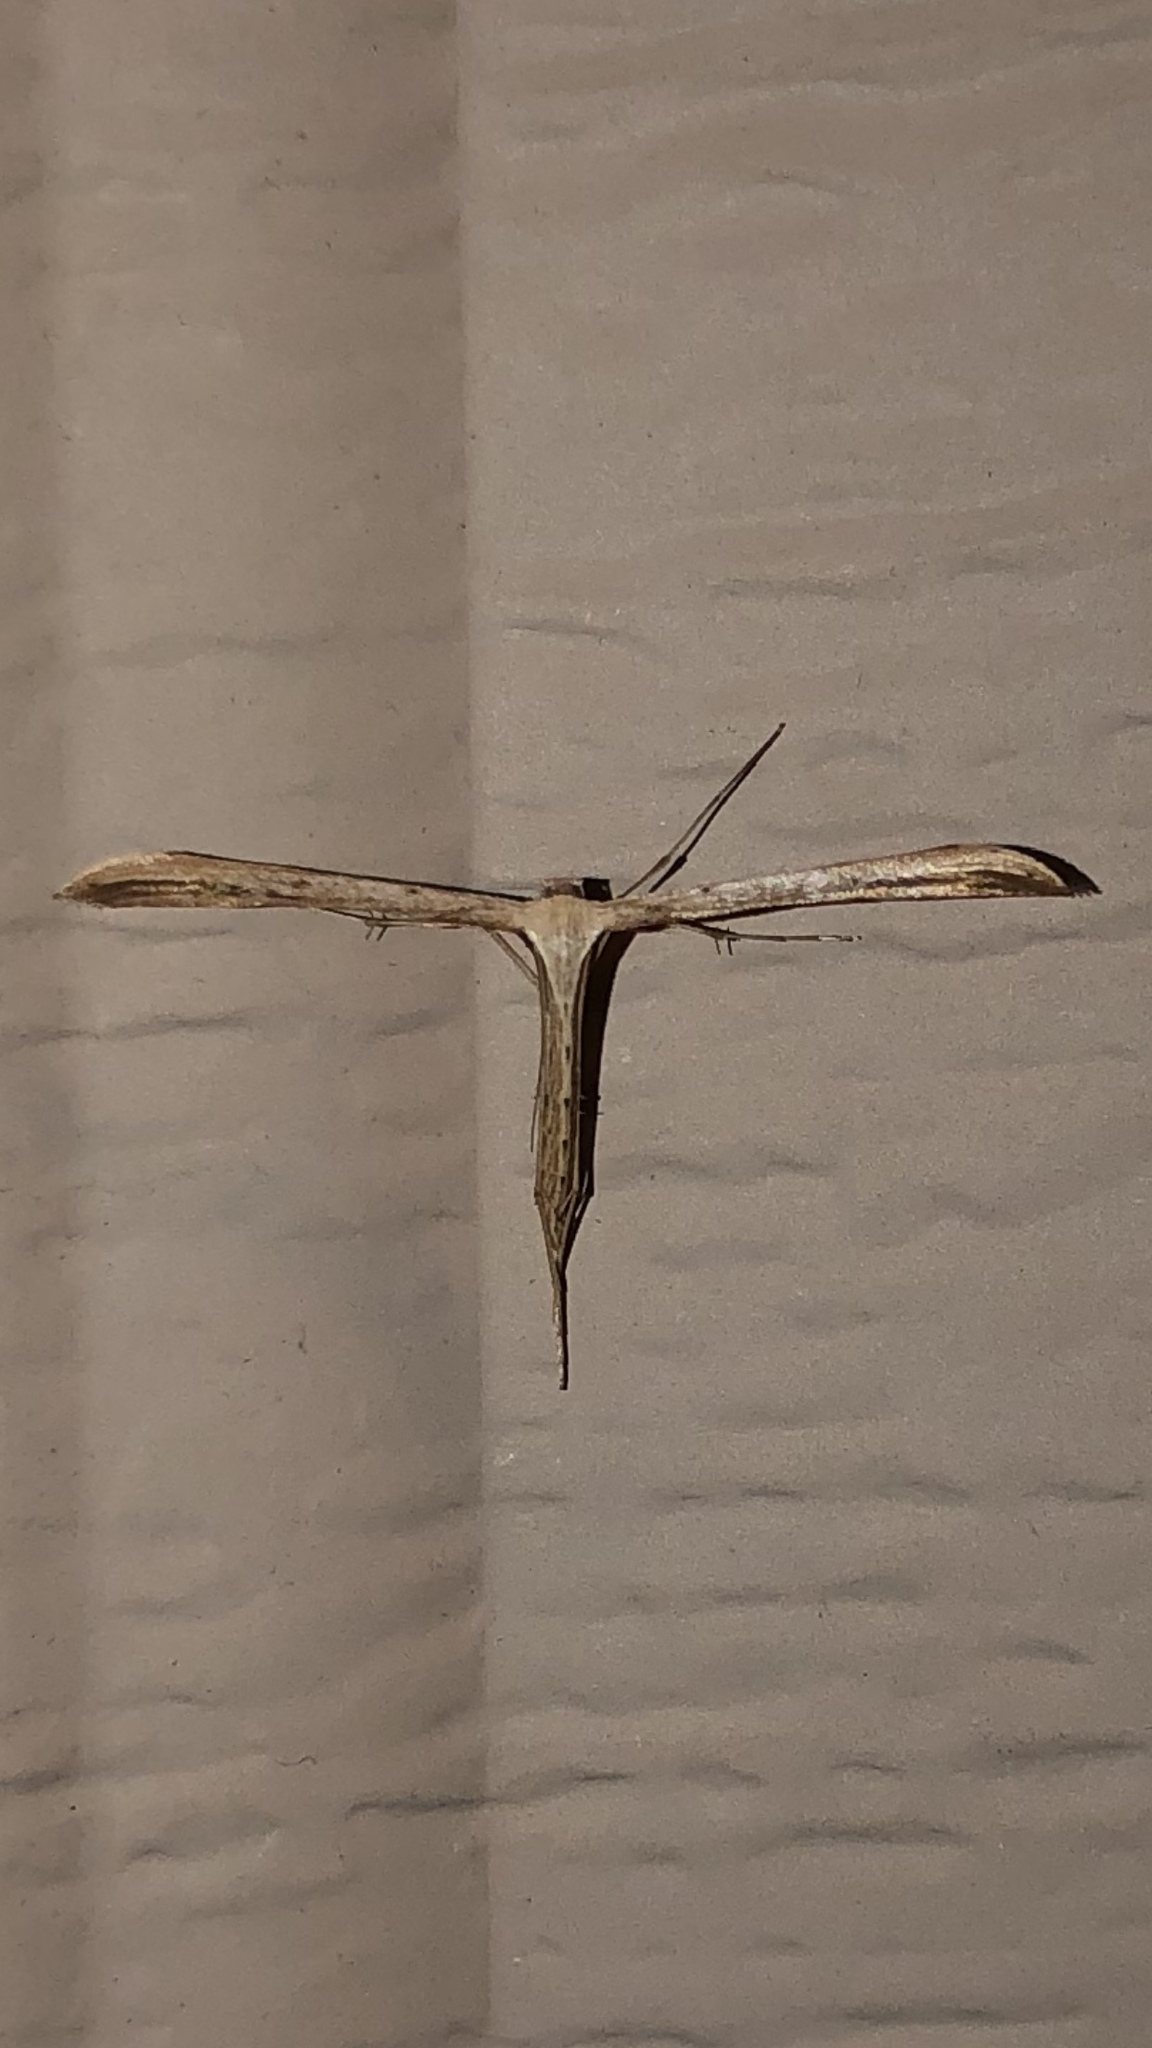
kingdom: Animalia
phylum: Arthropoda
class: Insecta
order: Lepidoptera
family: Pterophoridae
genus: Emmelina
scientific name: Emmelina monodactyla
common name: Common plume
